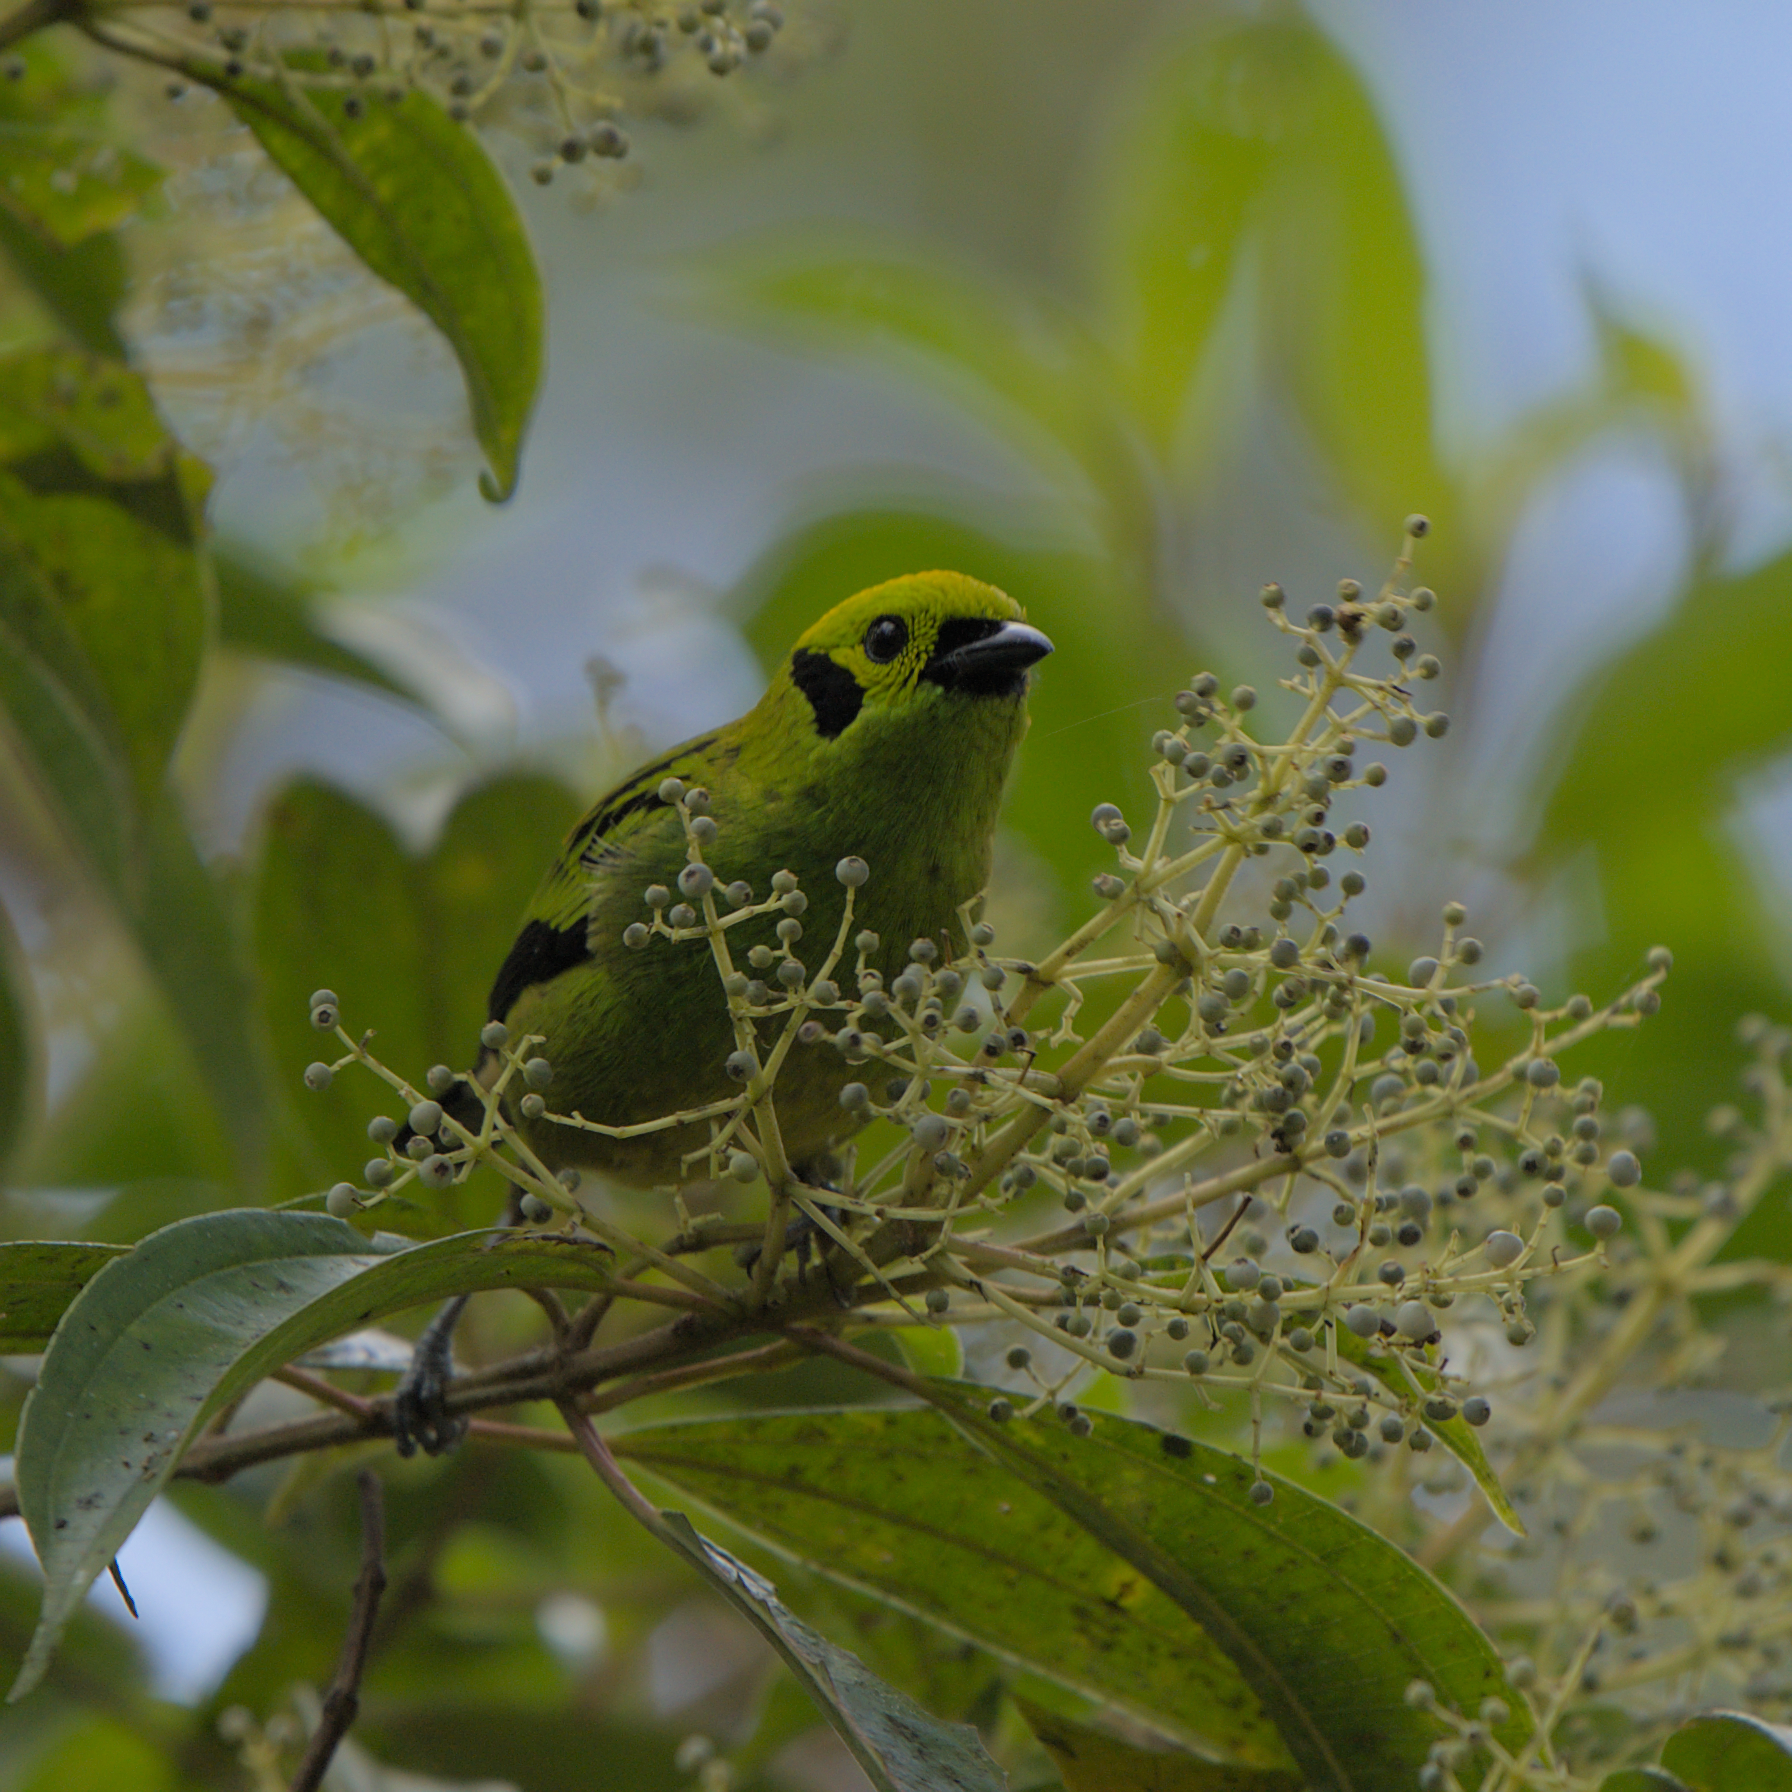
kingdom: Animalia
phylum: Chordata
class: Aves
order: Passeriformes
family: Thraupidae
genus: Tangara
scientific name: Tangara florida
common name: Emerald tanager
